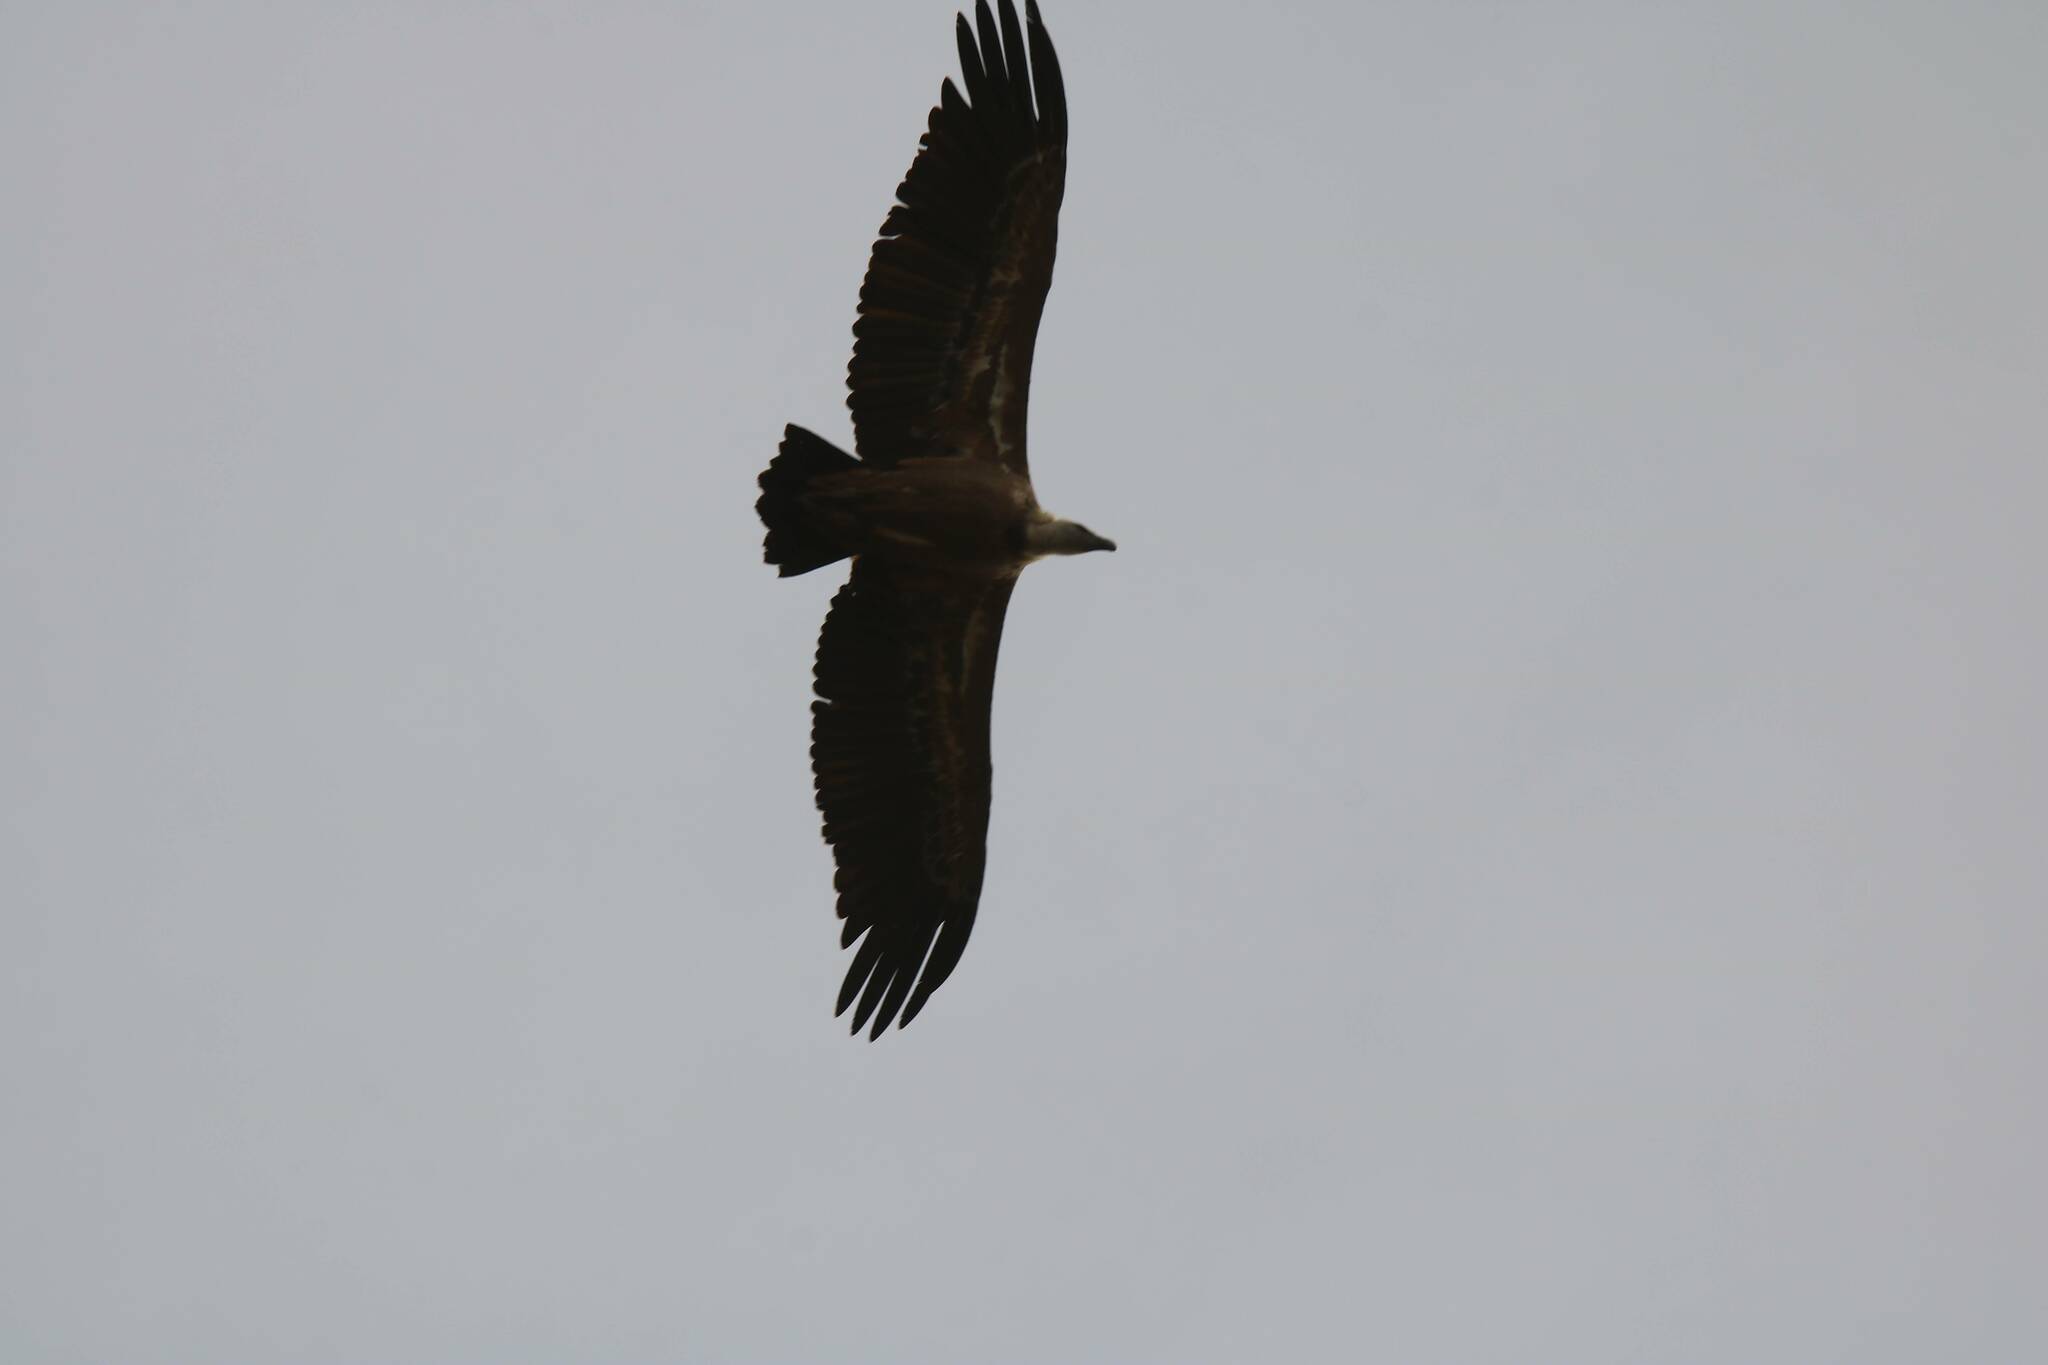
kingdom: Animalia
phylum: Chordata
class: Aves
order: Accipitriformes
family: Accipitridae
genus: Gyps
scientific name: Gyps fulvus
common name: Griffon vulture
